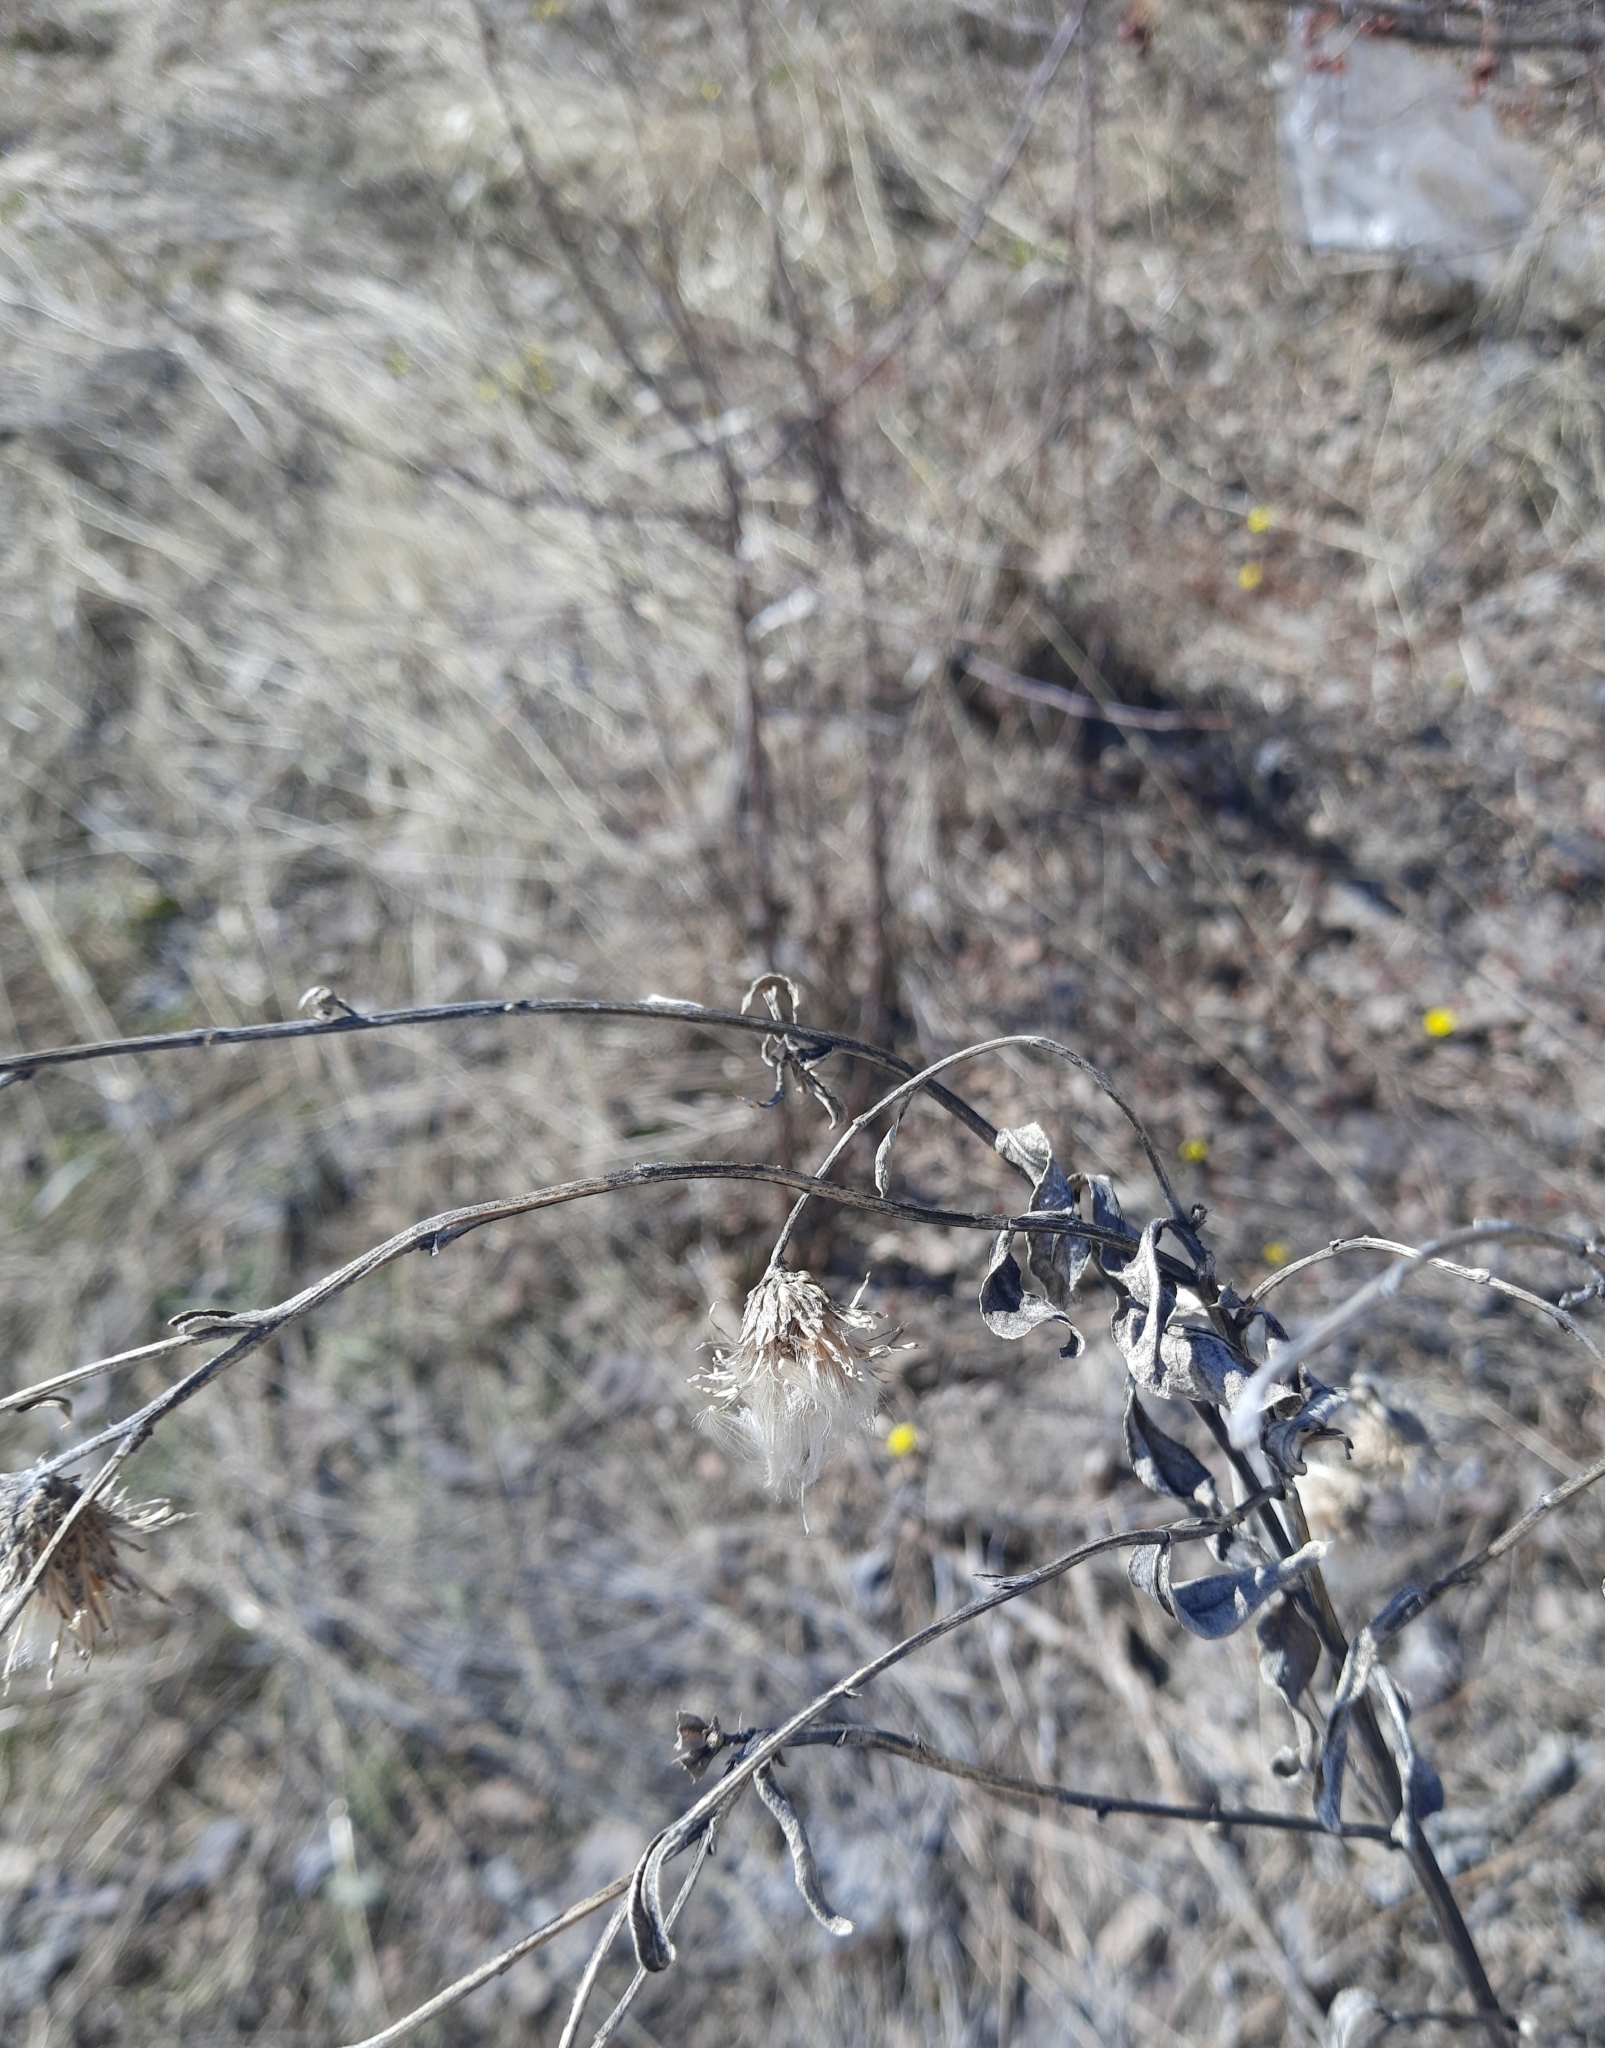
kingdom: Plantae
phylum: Tracheophyta
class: Magnoliopsida
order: Asterales
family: Asteraceae
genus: Cirsium
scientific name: Cirsium arvense
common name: Creeping thistle
